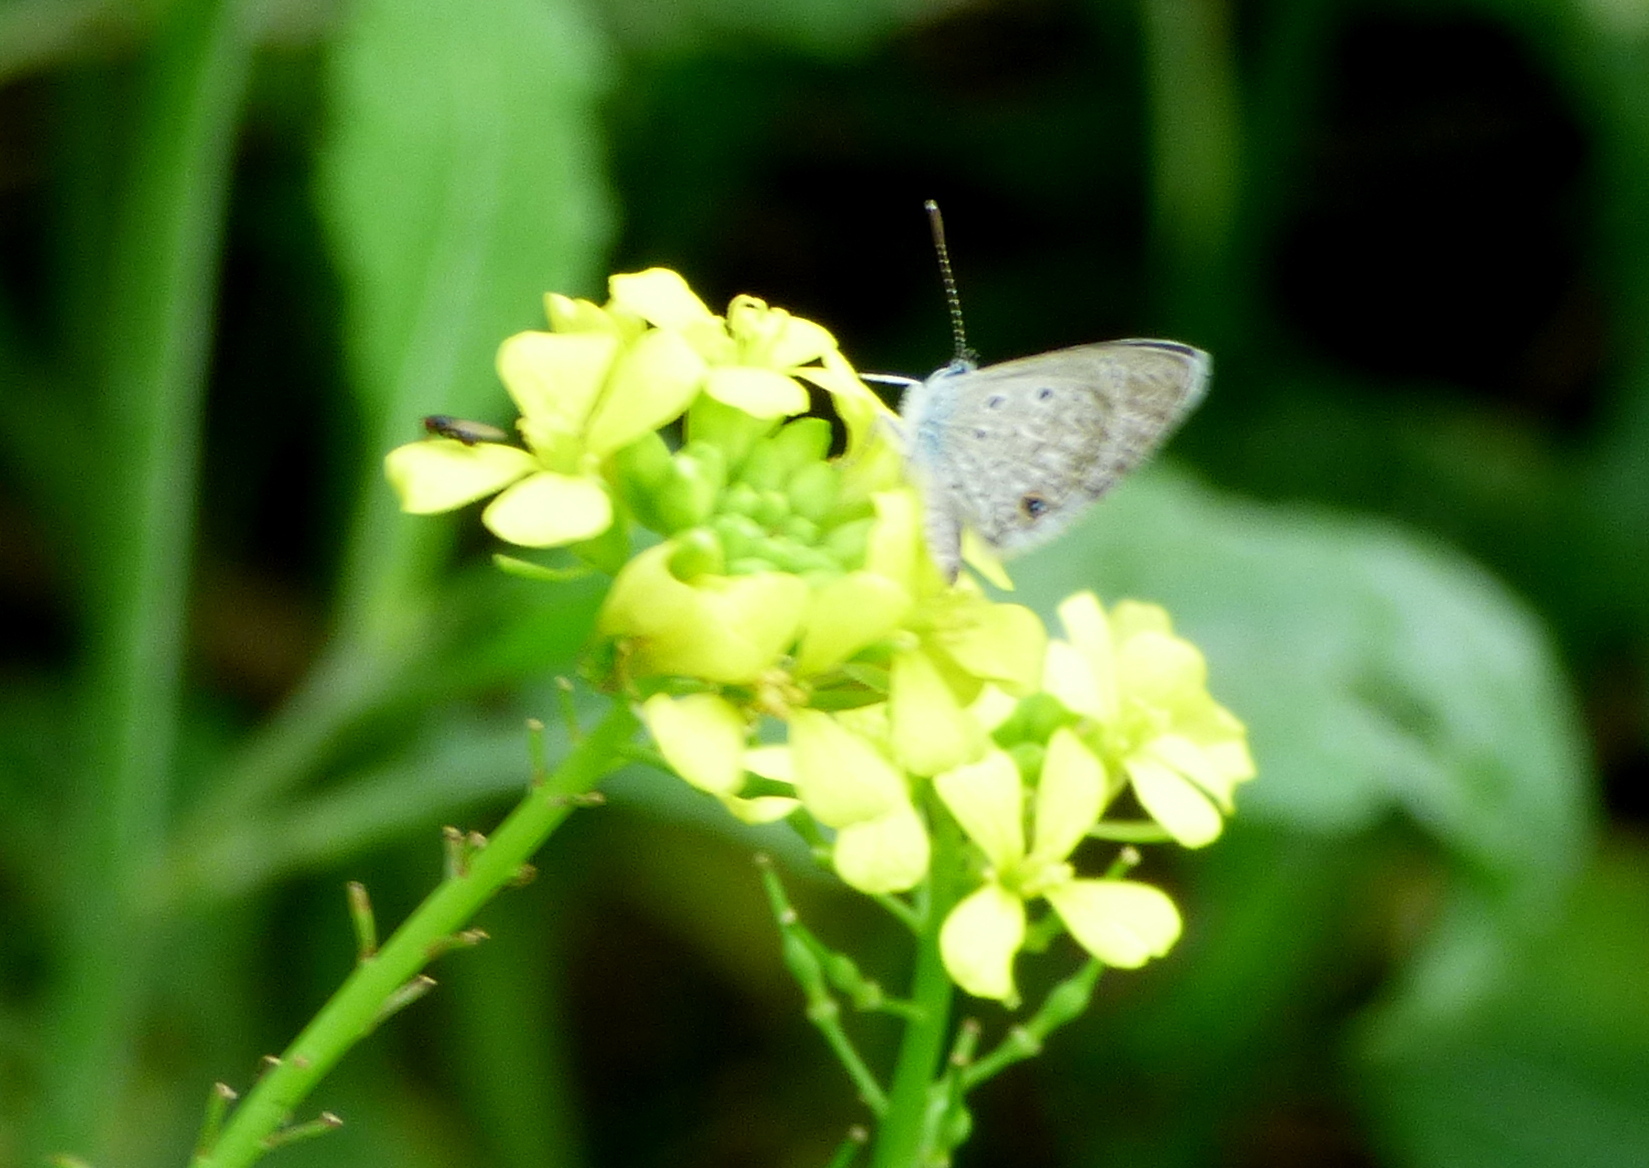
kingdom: Animalia
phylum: Arthropoda
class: Insecta
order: Lepidoptera
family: Lycaenidae
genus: Hemiargus
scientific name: Hemiargus hanno
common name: Common blue
